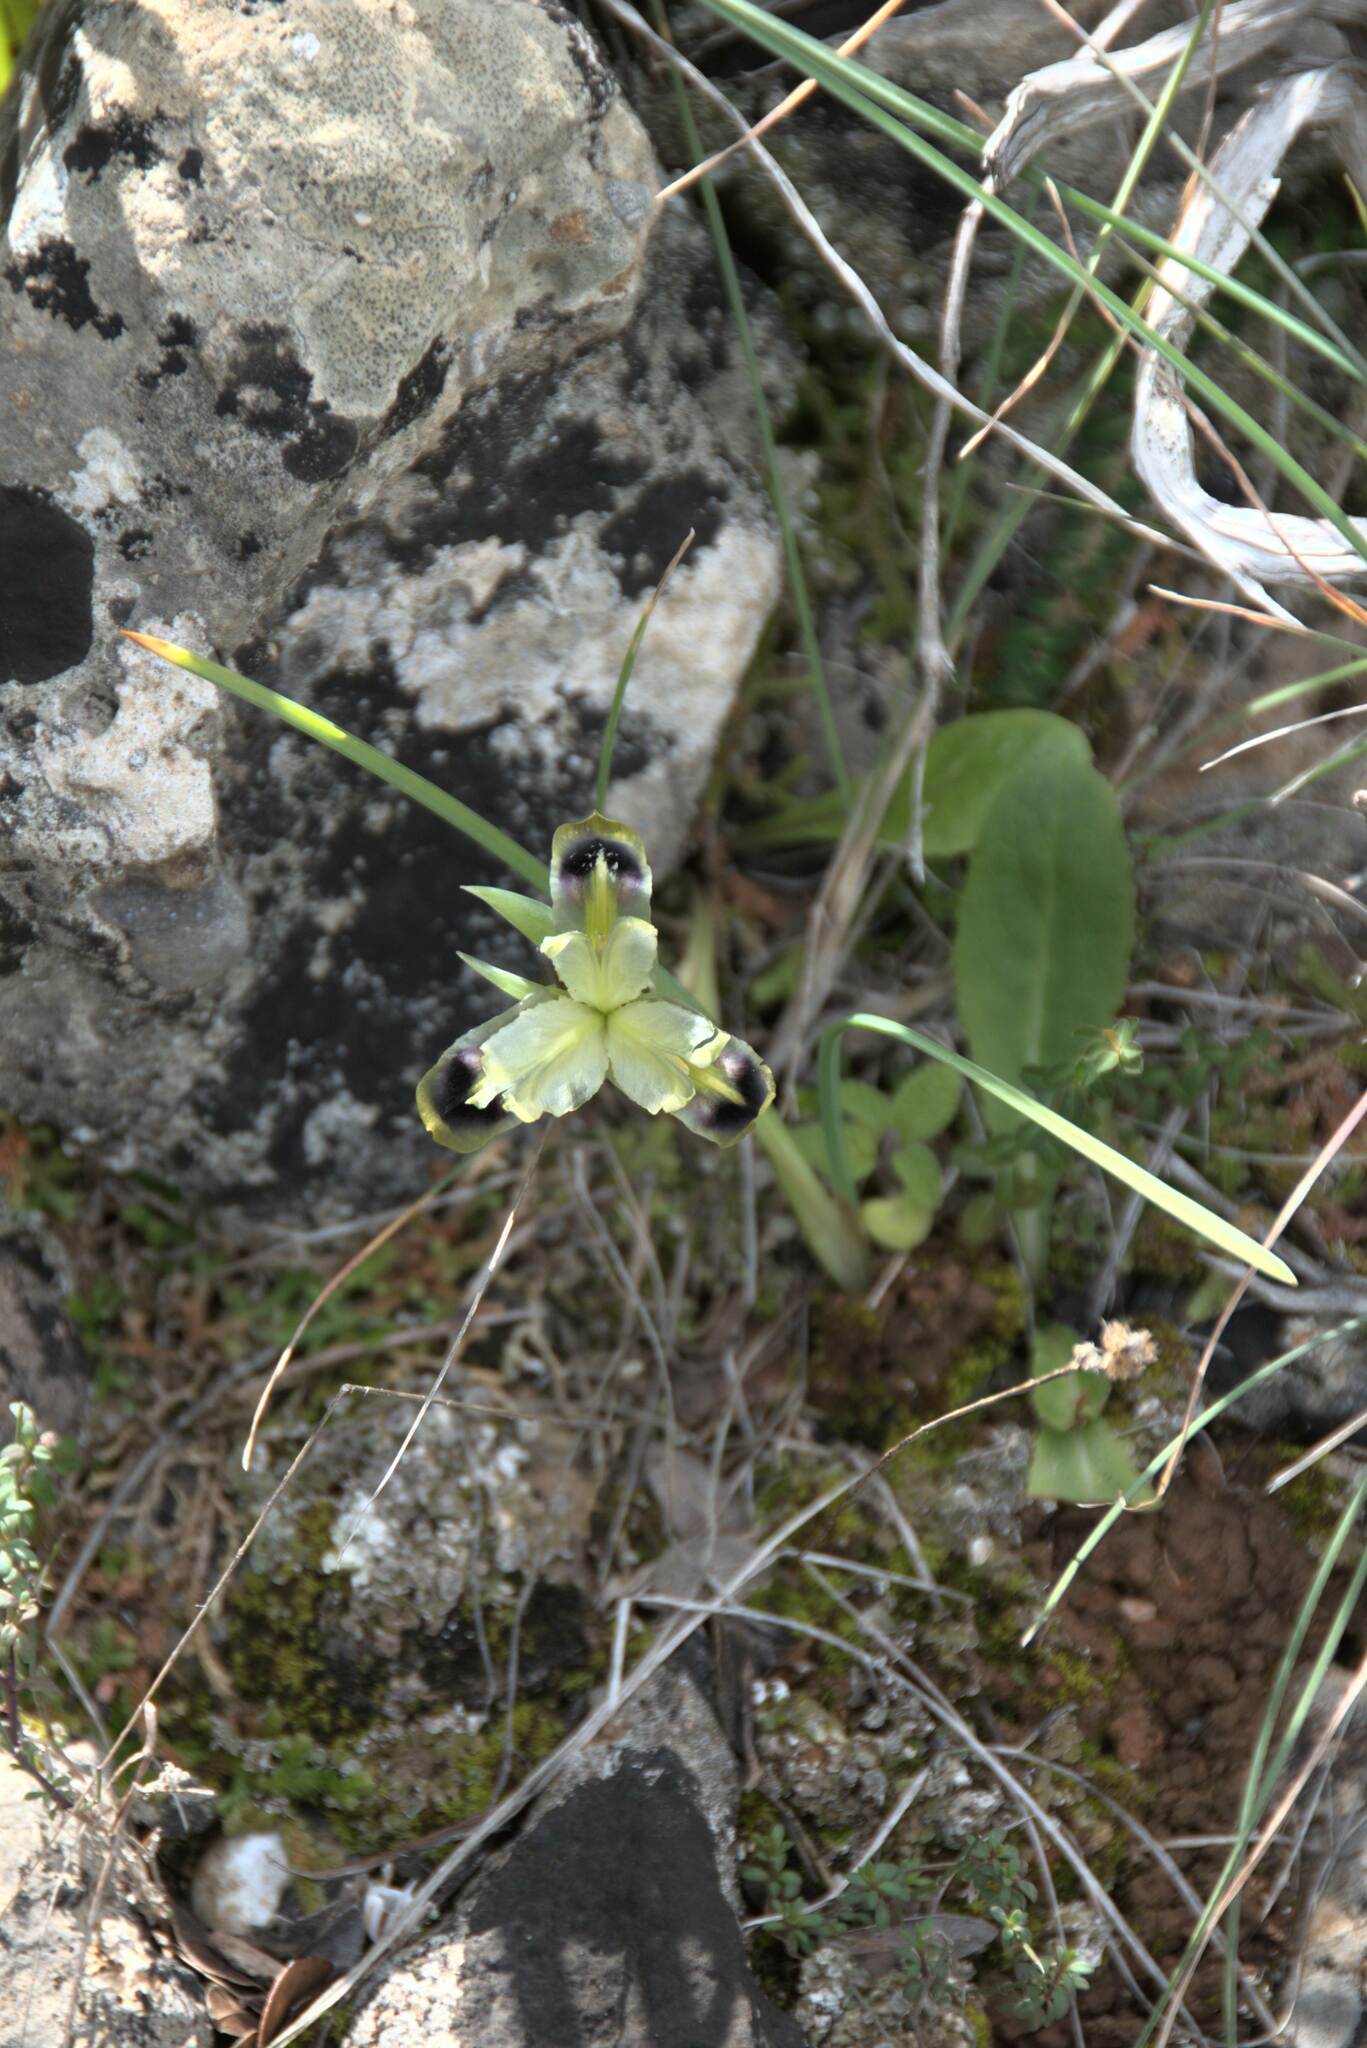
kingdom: Plantae
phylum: Tracheophyta
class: Liliopsida
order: Asparagales
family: Iridaceae
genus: Iris
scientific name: Iris tuberosa
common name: Snake's-head iris
